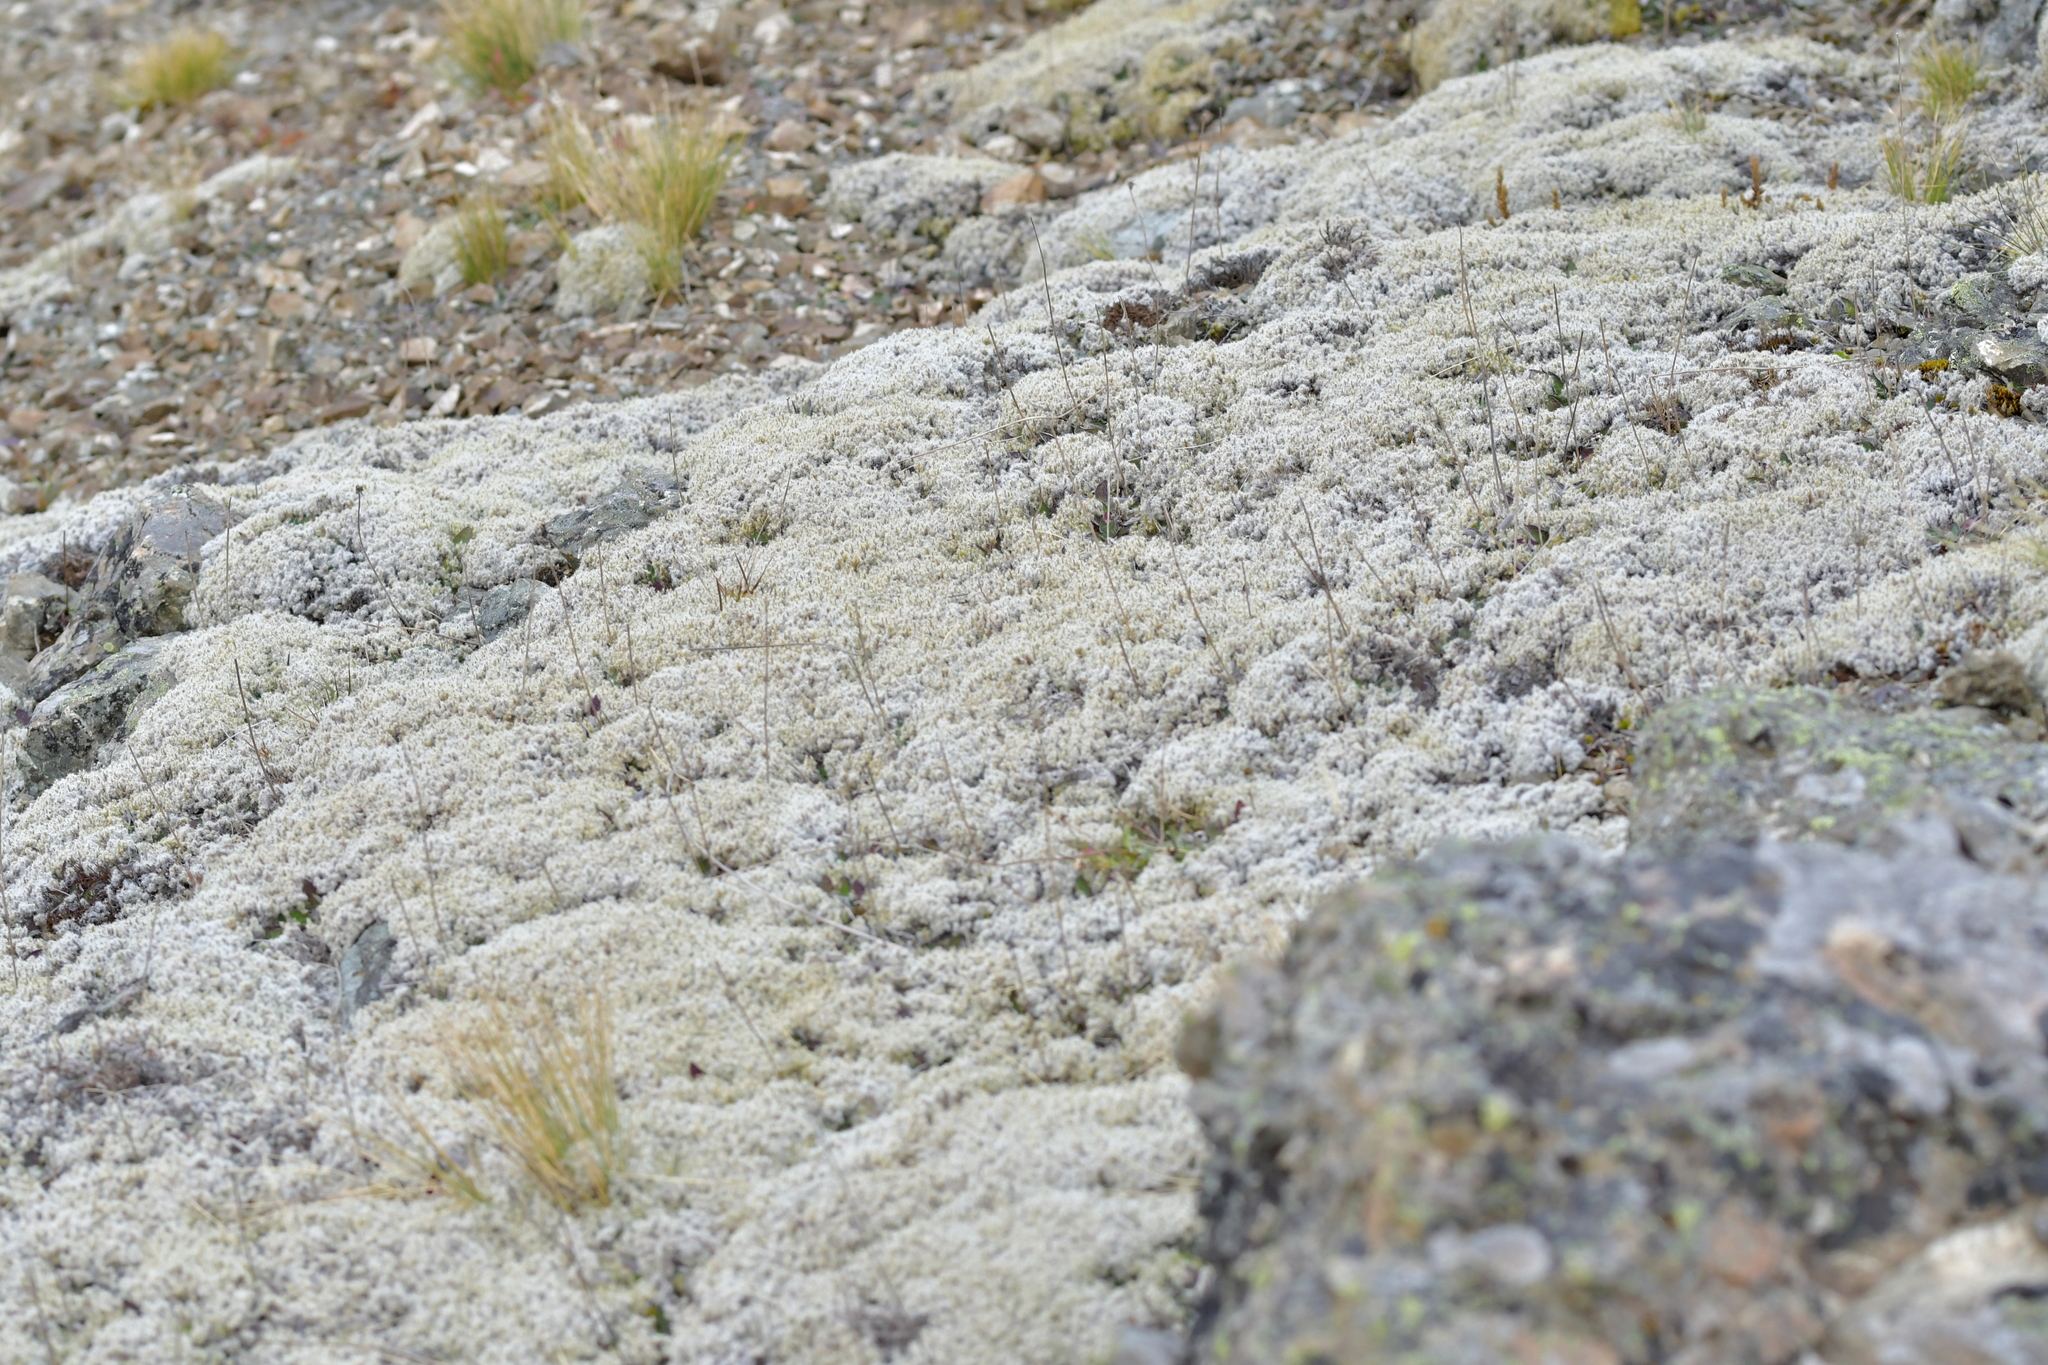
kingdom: Plantae
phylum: Bryophyta
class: Bryopsida
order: Grimmiales
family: Grimmiaceae
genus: Racomitrium
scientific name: Racomitrium lanuginosum
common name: Hoary rock moss
